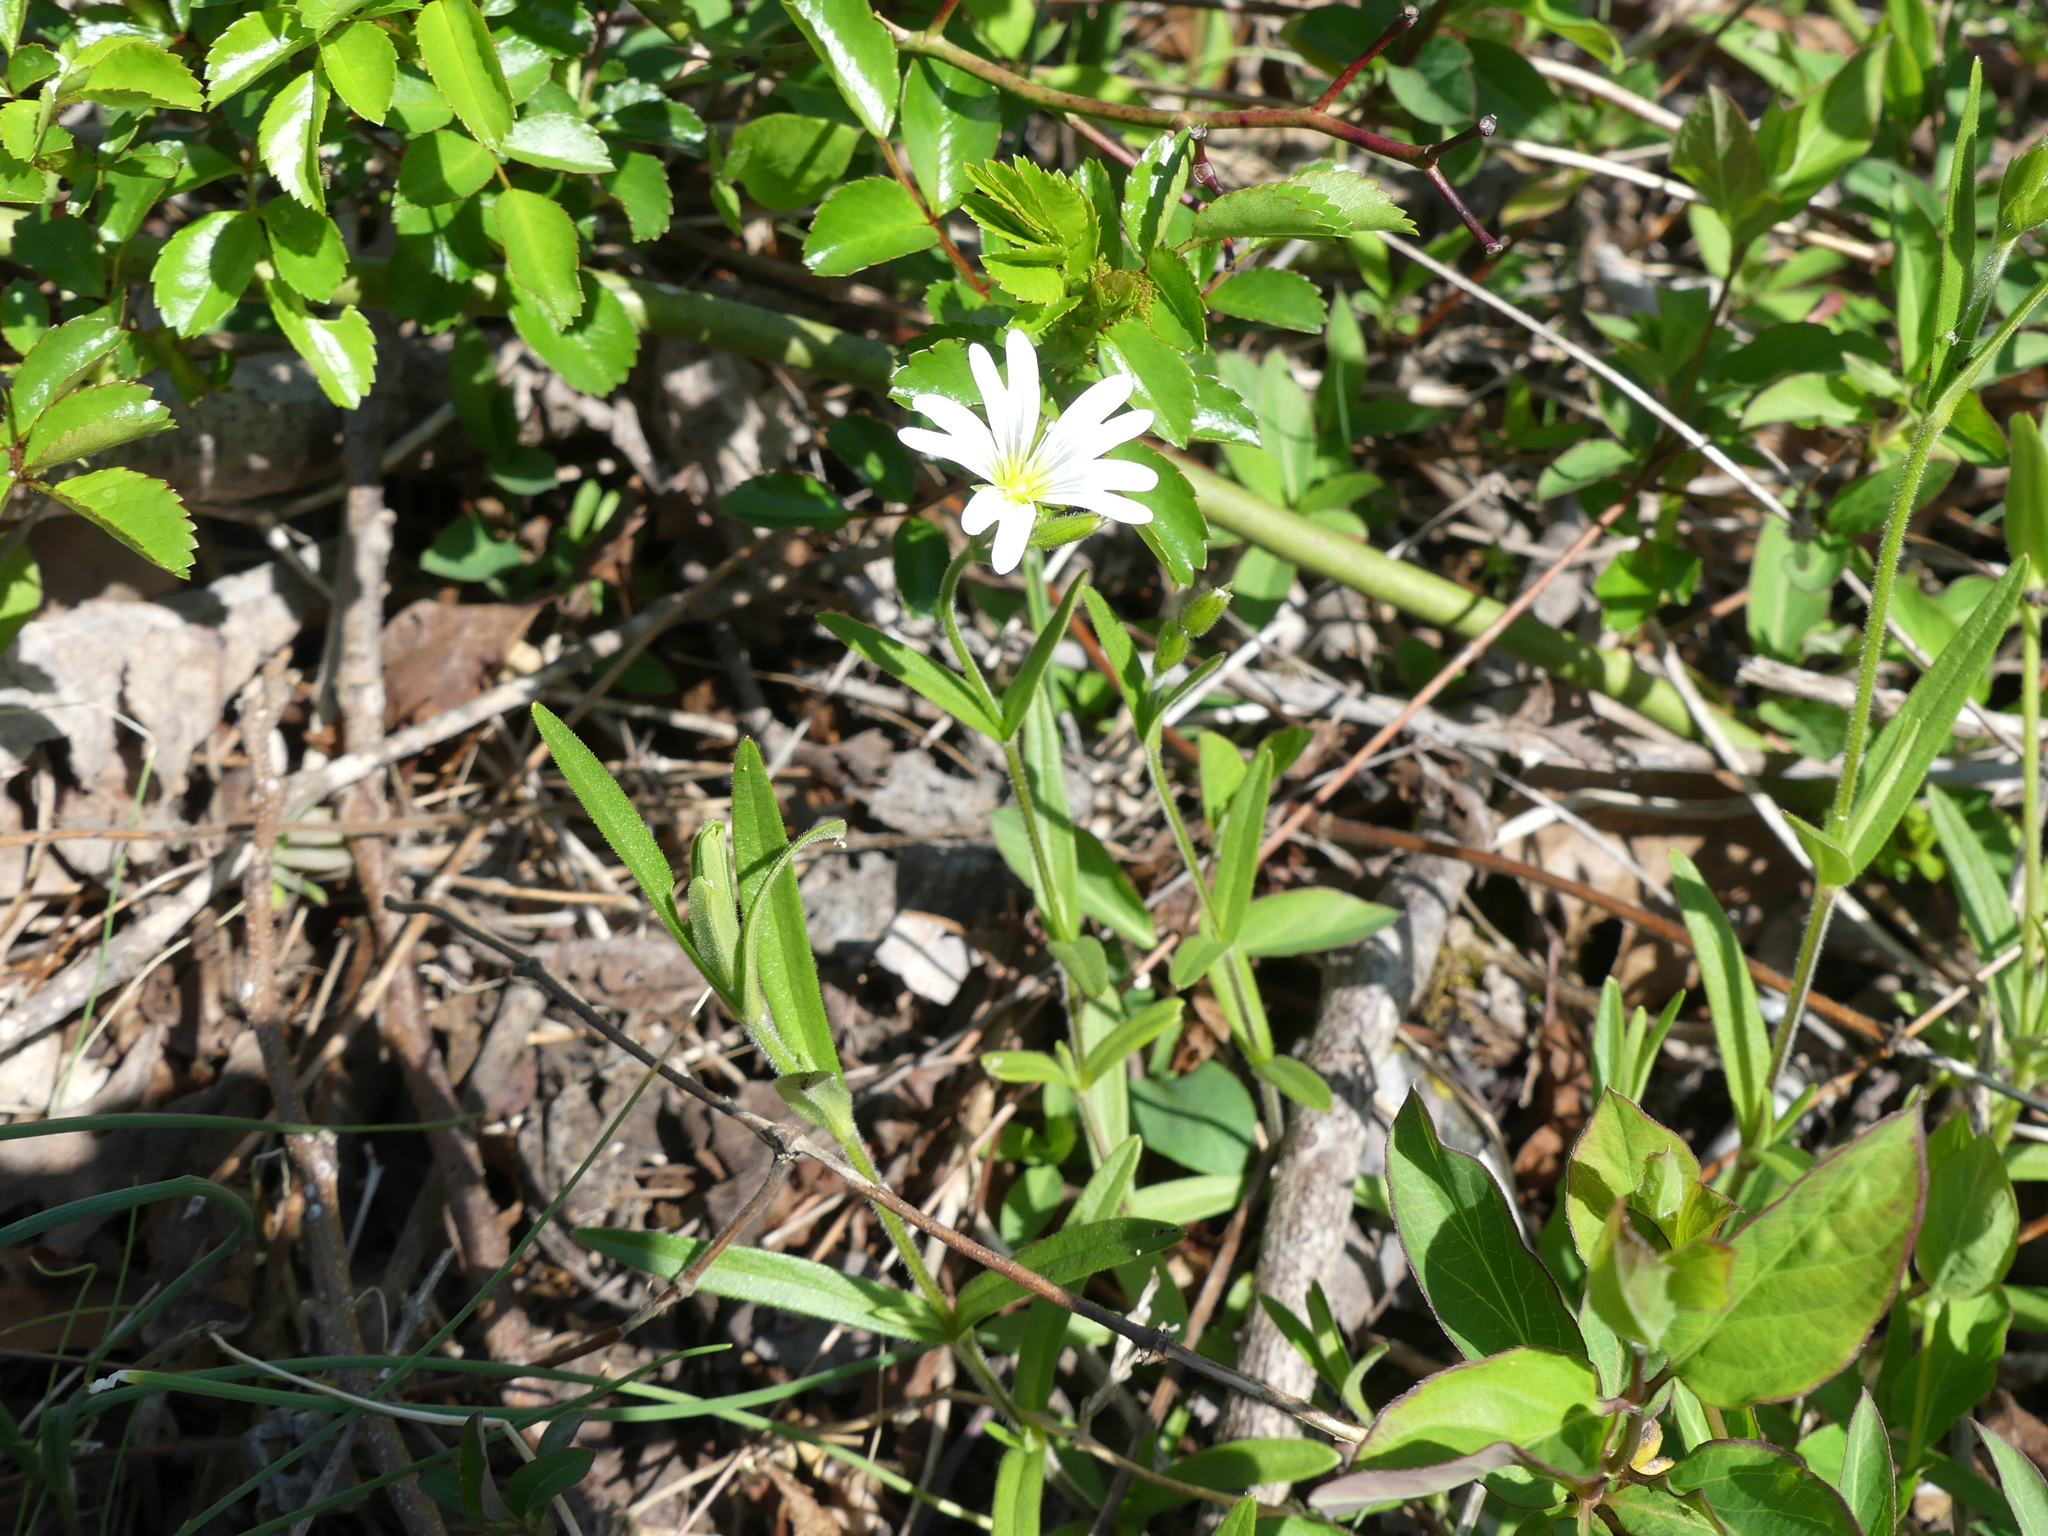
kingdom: Plantae
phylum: Tracheophyta
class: Magnoliopsida
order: Caryophyllales
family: Caryophyllaceae
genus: Cerastium
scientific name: Cerastium arvense
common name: Field mouse-ear
